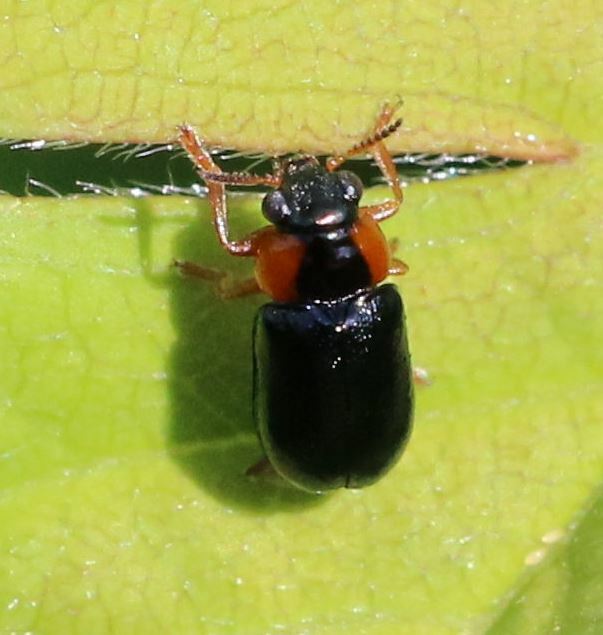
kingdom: Animalia
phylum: Arthropoda
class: Insecta
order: Coleoptera
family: Chrysomelidae
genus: Smaragdina
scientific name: Smaragdina aurita
